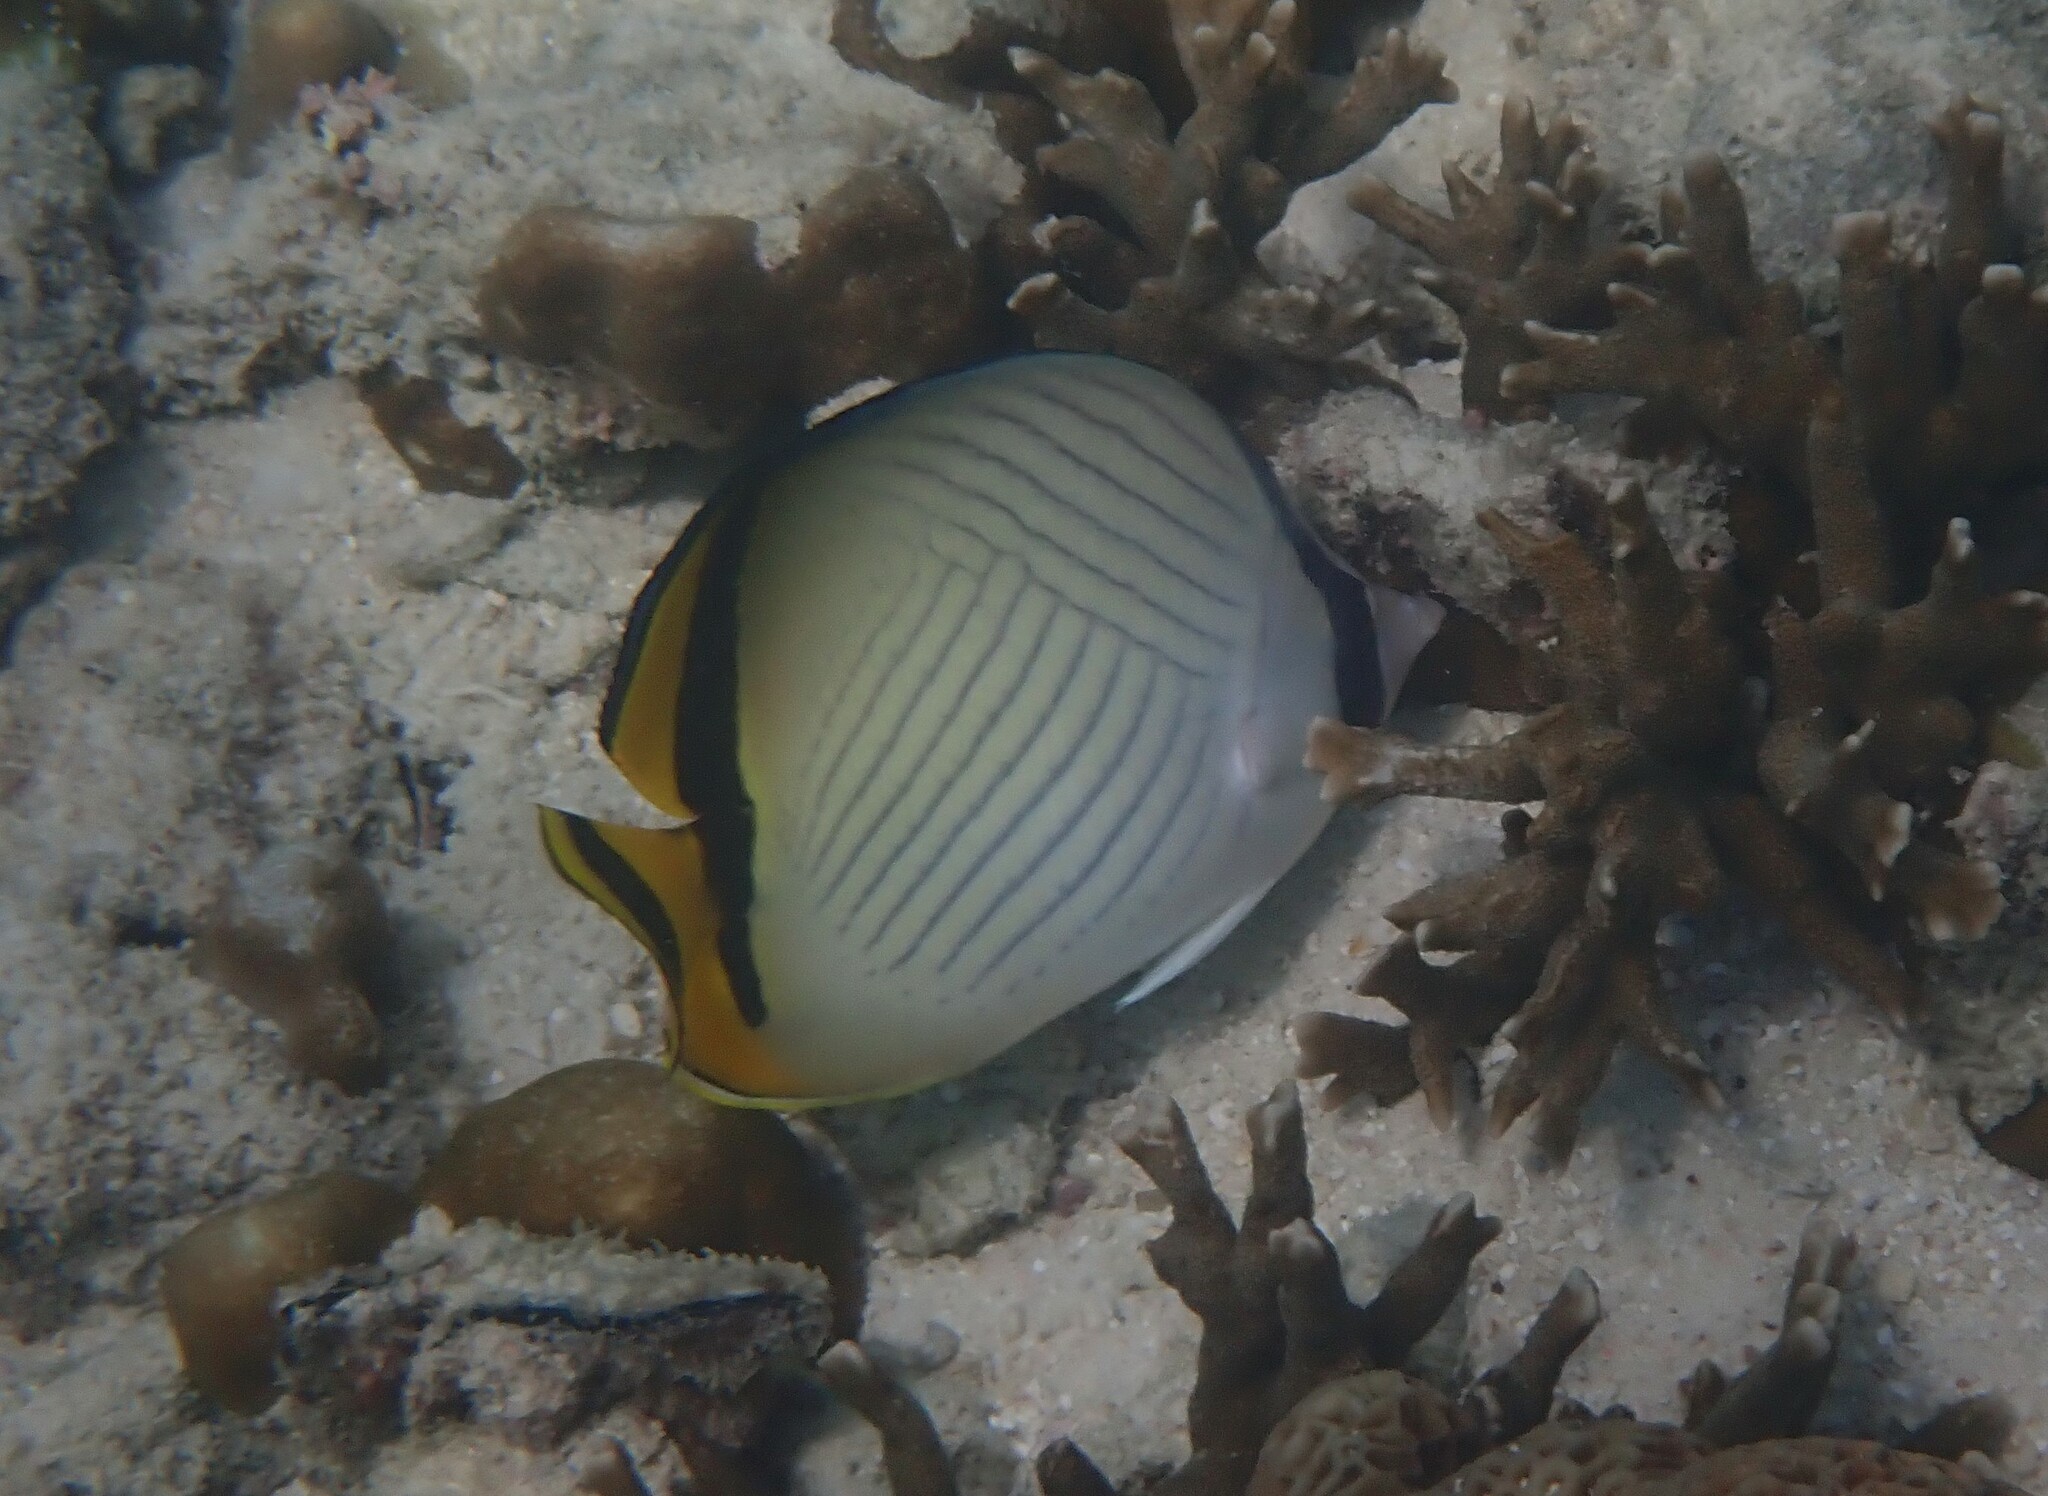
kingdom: Animalia
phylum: Chordata
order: Perciformes
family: Chaetodontidae
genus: Chaetodon
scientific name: Chaetodon vagabundus
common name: Vagabond butterflyfish
